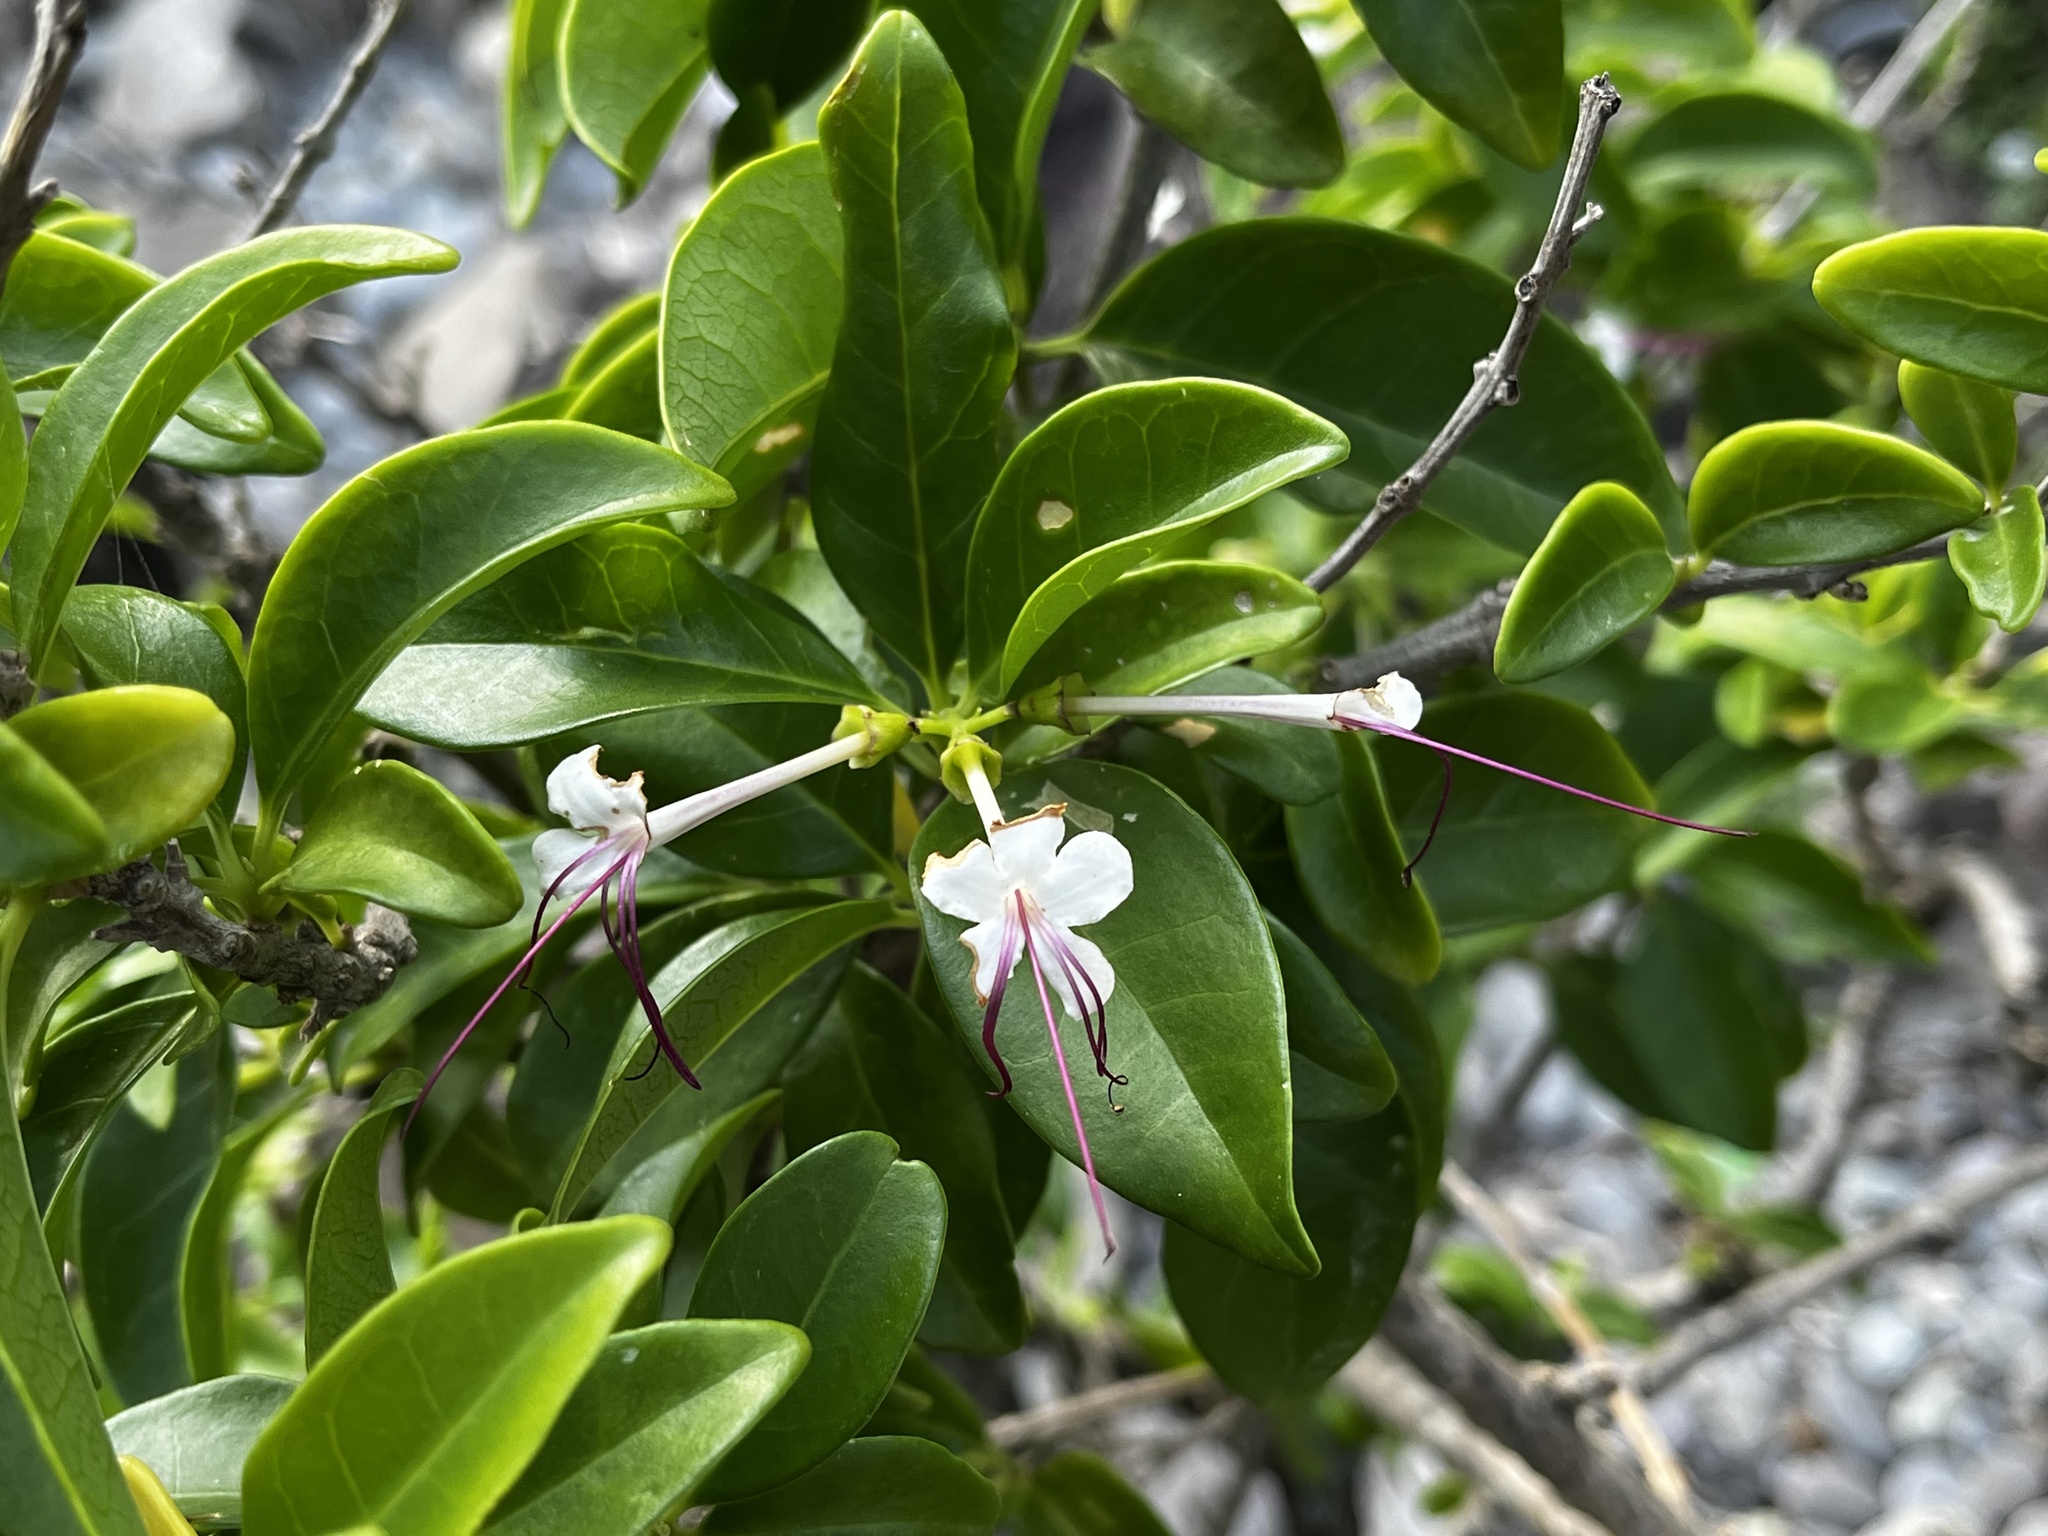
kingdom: Plantae
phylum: Tracheophyta
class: Magnoliopsida
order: Lamiales
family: Lamiaceae
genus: Volkameria
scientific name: Volkameria inermis
